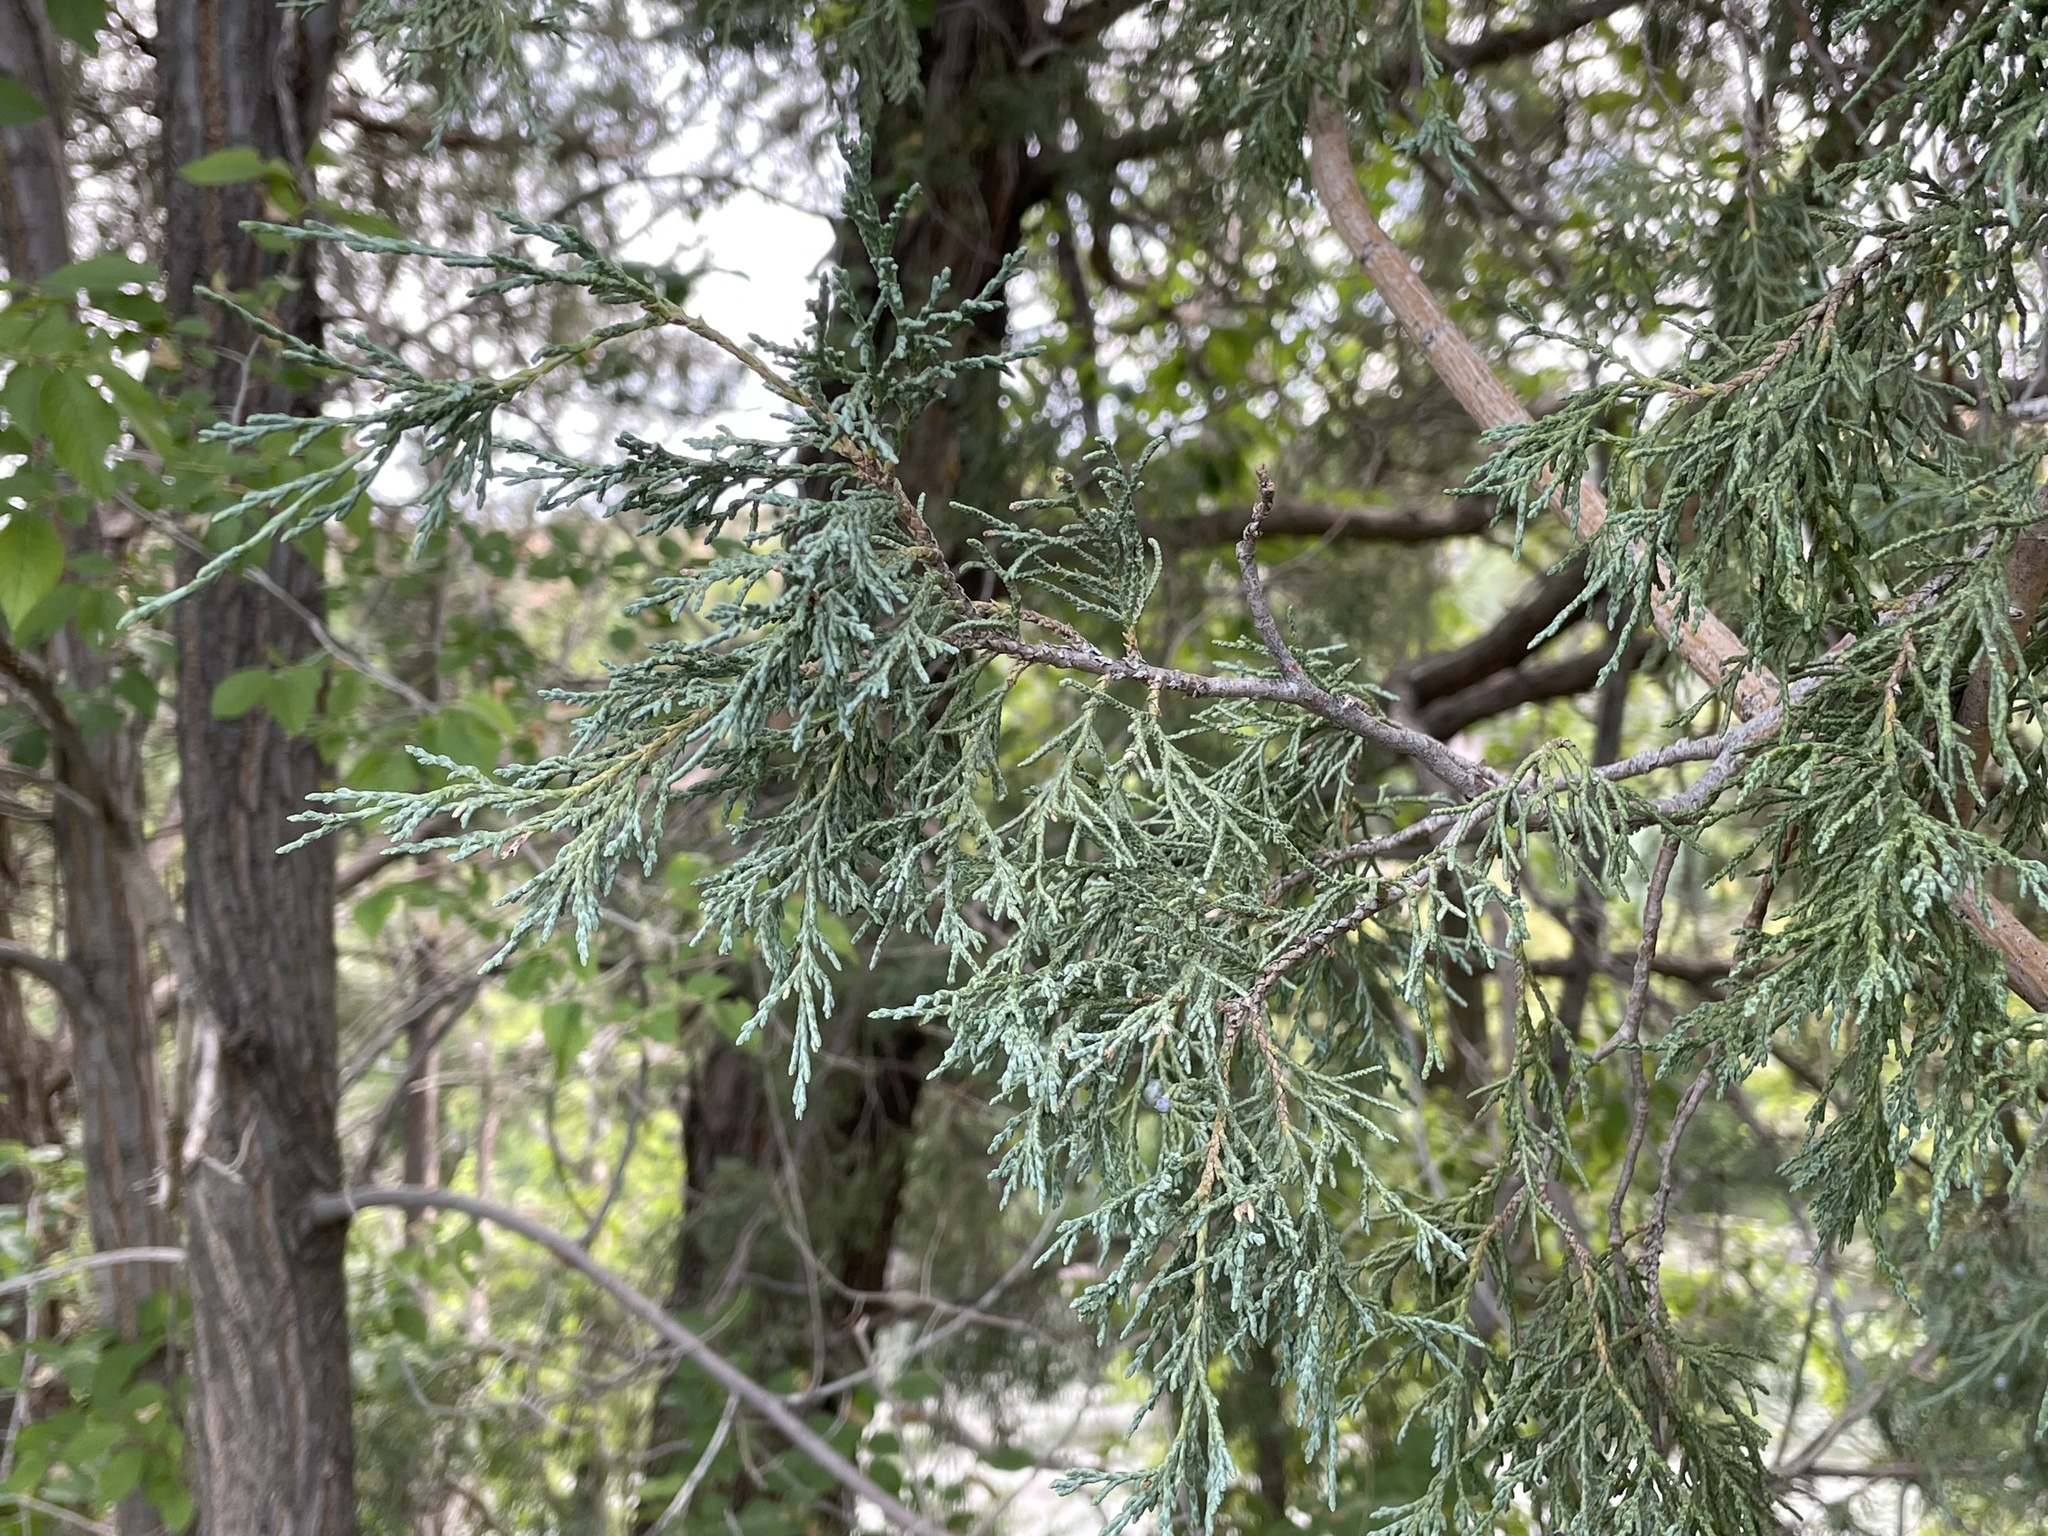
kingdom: Plantae
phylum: Tracheophyta
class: Pinopsida
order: Pinales
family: Cupressaceae
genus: Juniperus
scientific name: Juniperus scopulorum
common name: Rocky mountain juniper
